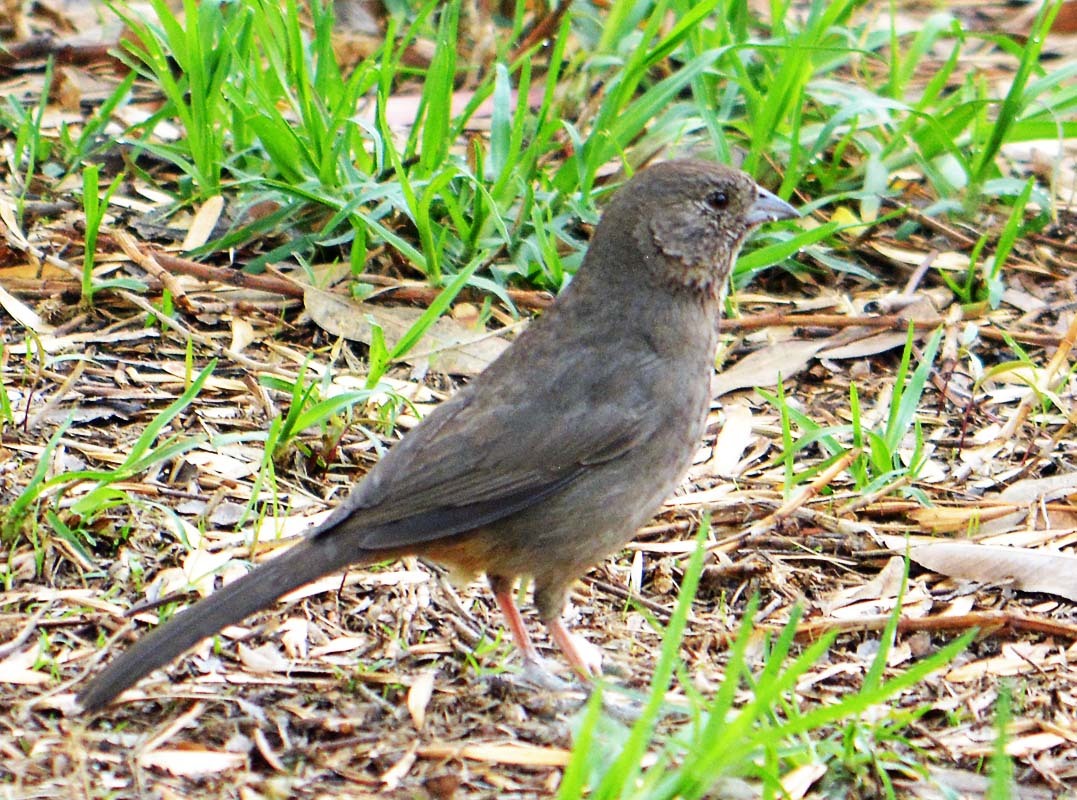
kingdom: Animalia
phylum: Chordata
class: Aves
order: Passeriformes
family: Passerellidae
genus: Melozone
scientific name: Melozone fusca
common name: Canyon towhee
